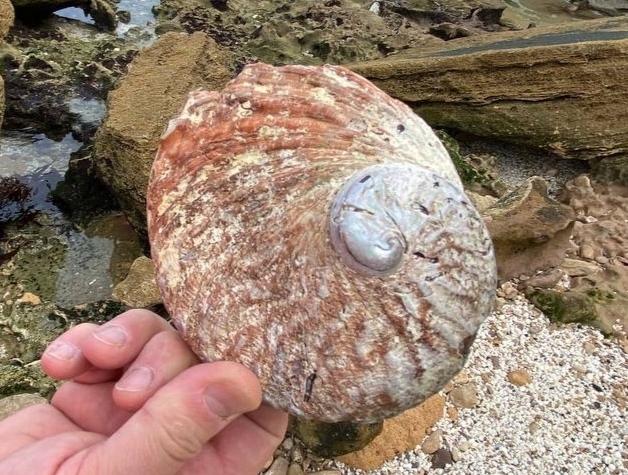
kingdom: Animalia
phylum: Mollusca
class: Gastropoda
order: Lepetellida
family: Haliotidae
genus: Haliotis
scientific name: Haliotis rubra
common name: Blacklip abalone
